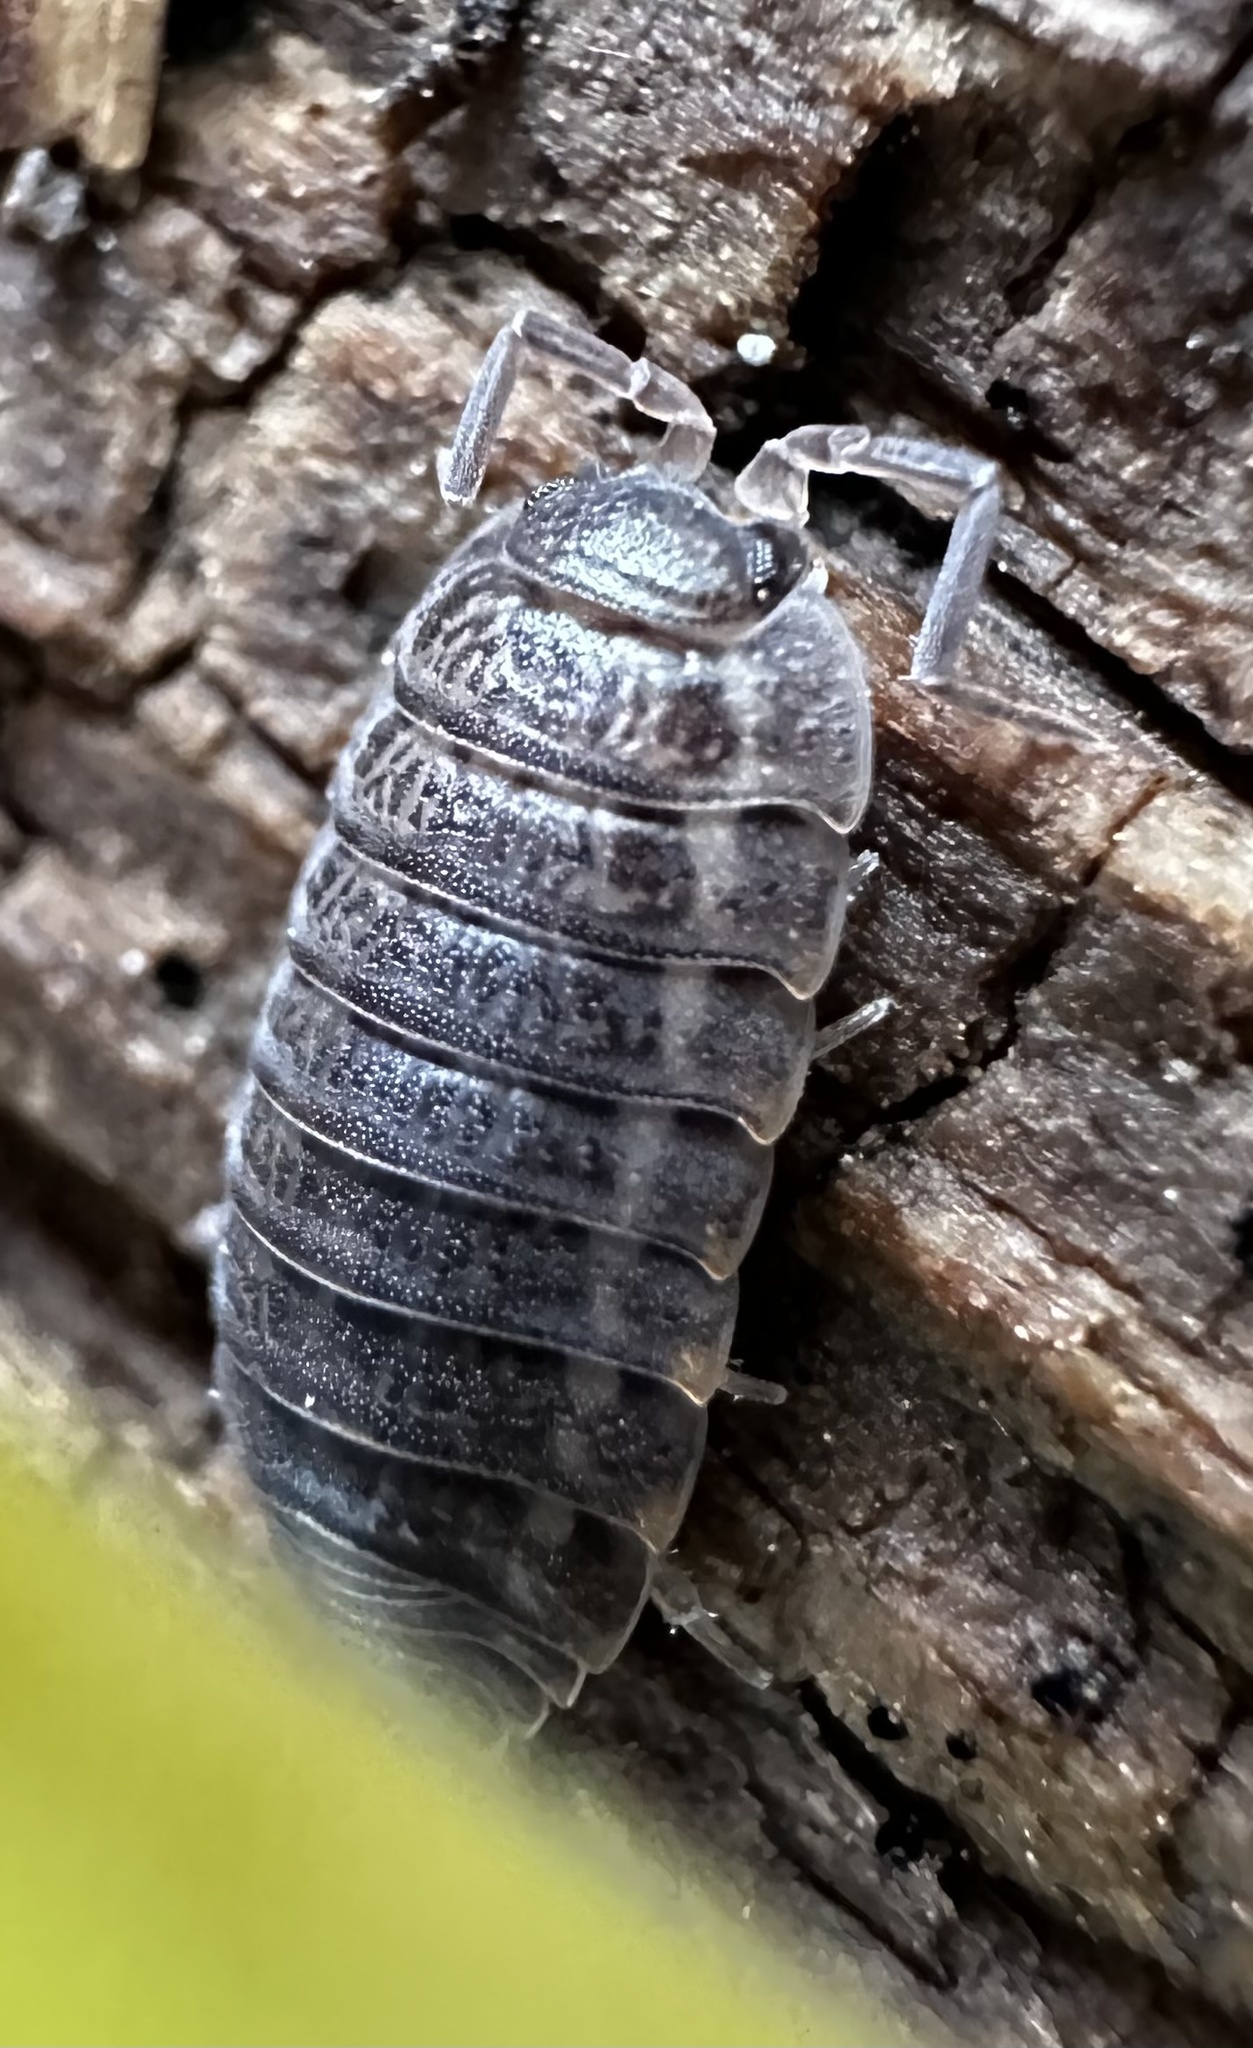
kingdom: Animalia
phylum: Arthropoda
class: Malacostraca
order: Isopoda
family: Trachelipodidae
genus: Trachelipus
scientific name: Trachelipus rathkii
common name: Isopod
